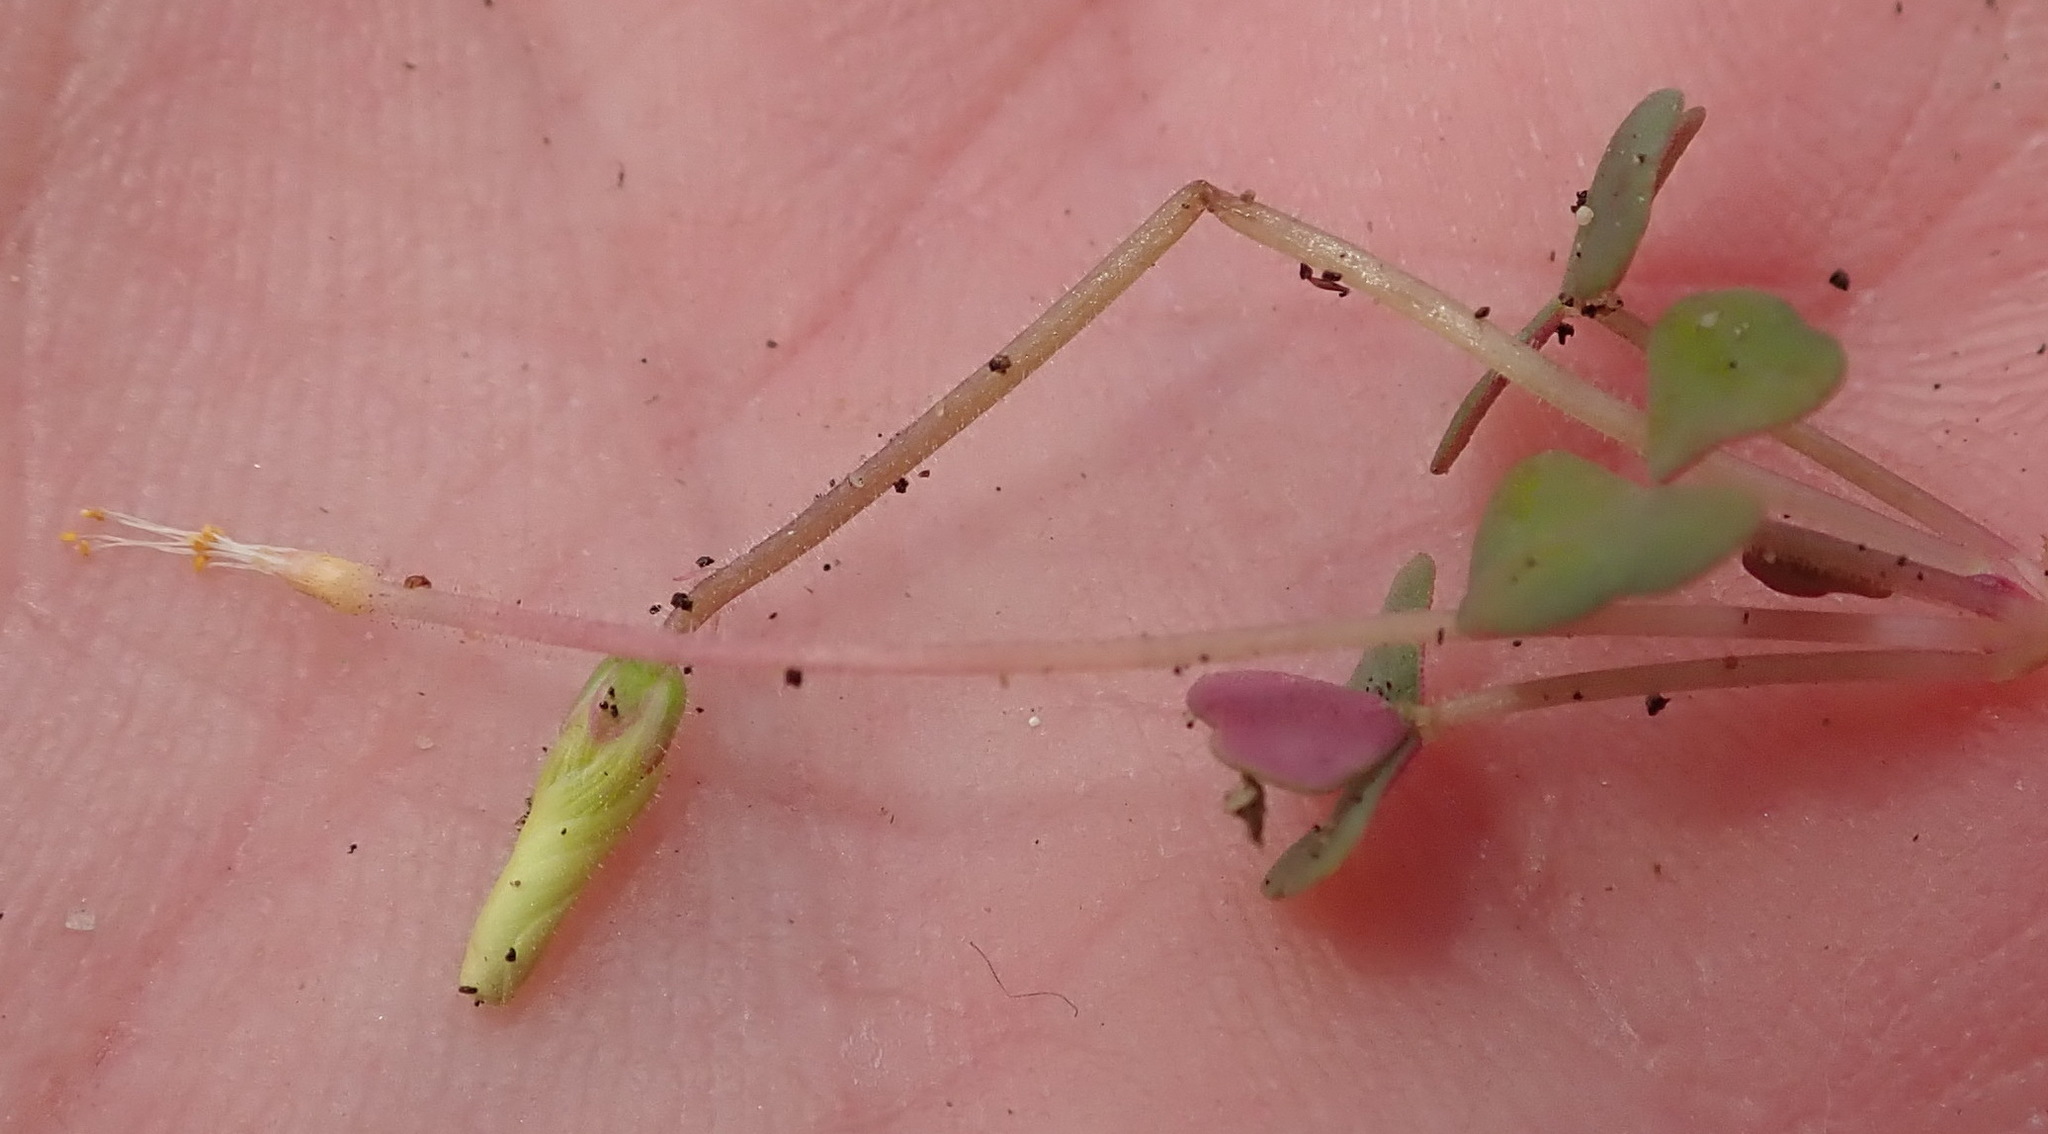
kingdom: Plantae
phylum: Tracheophyta
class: Magnoliopsida
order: Oxalidales
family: Oxalidaceae
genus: Oxalis
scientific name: Oxalis punctata
